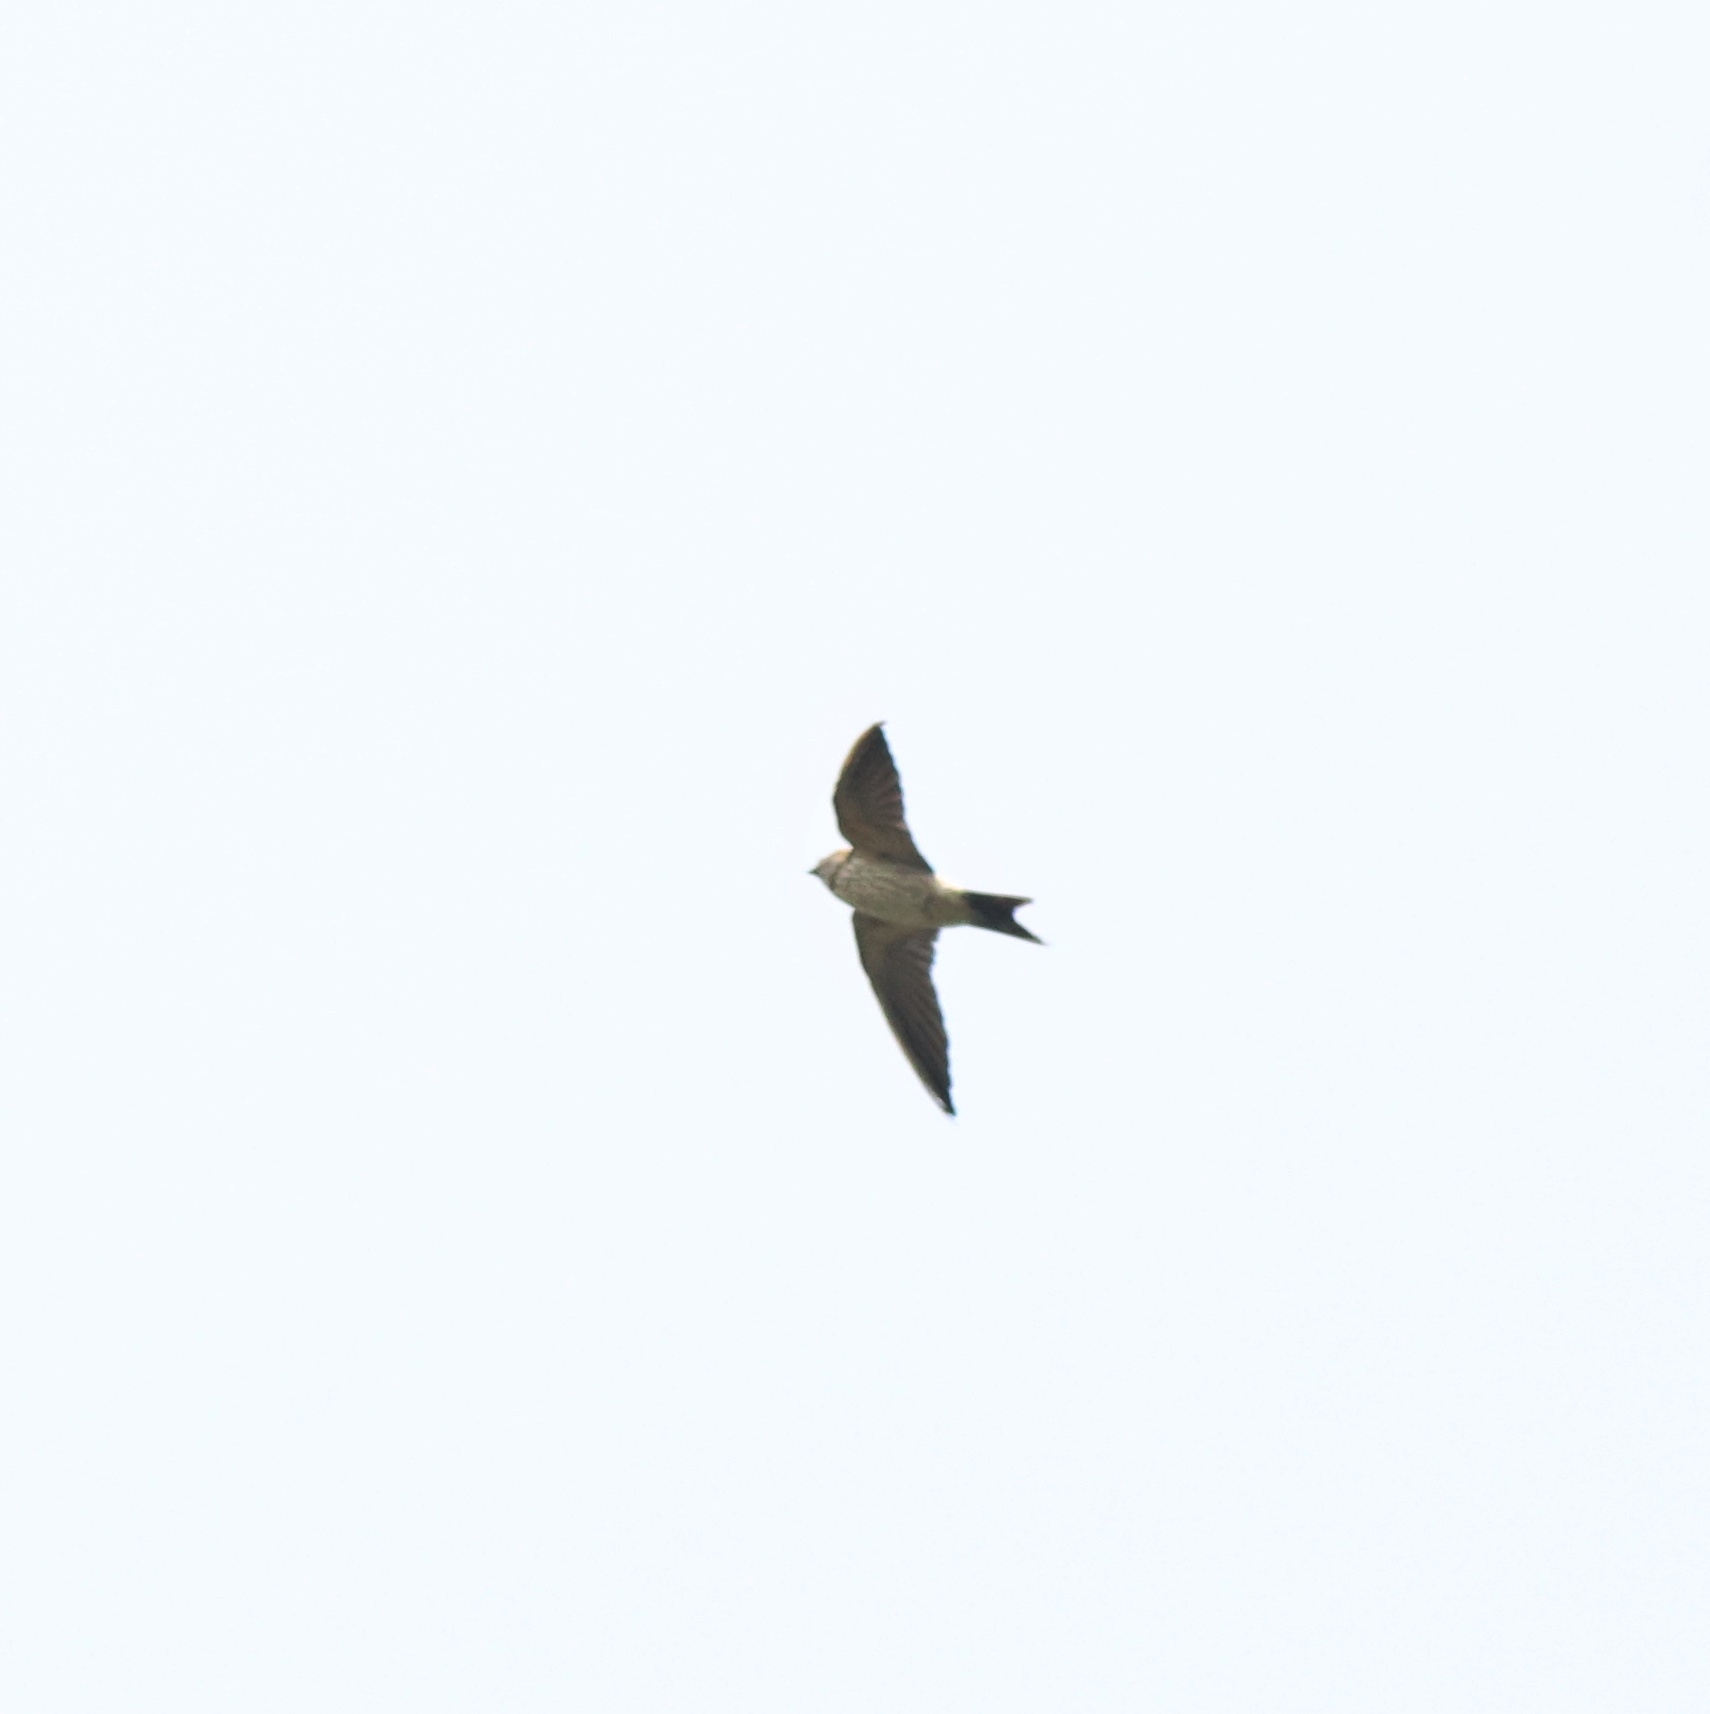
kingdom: Animalia
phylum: Chordata
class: Aves
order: Passeriformes
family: Hirundinidae
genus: Cecropis
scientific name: Cecropis daurica
